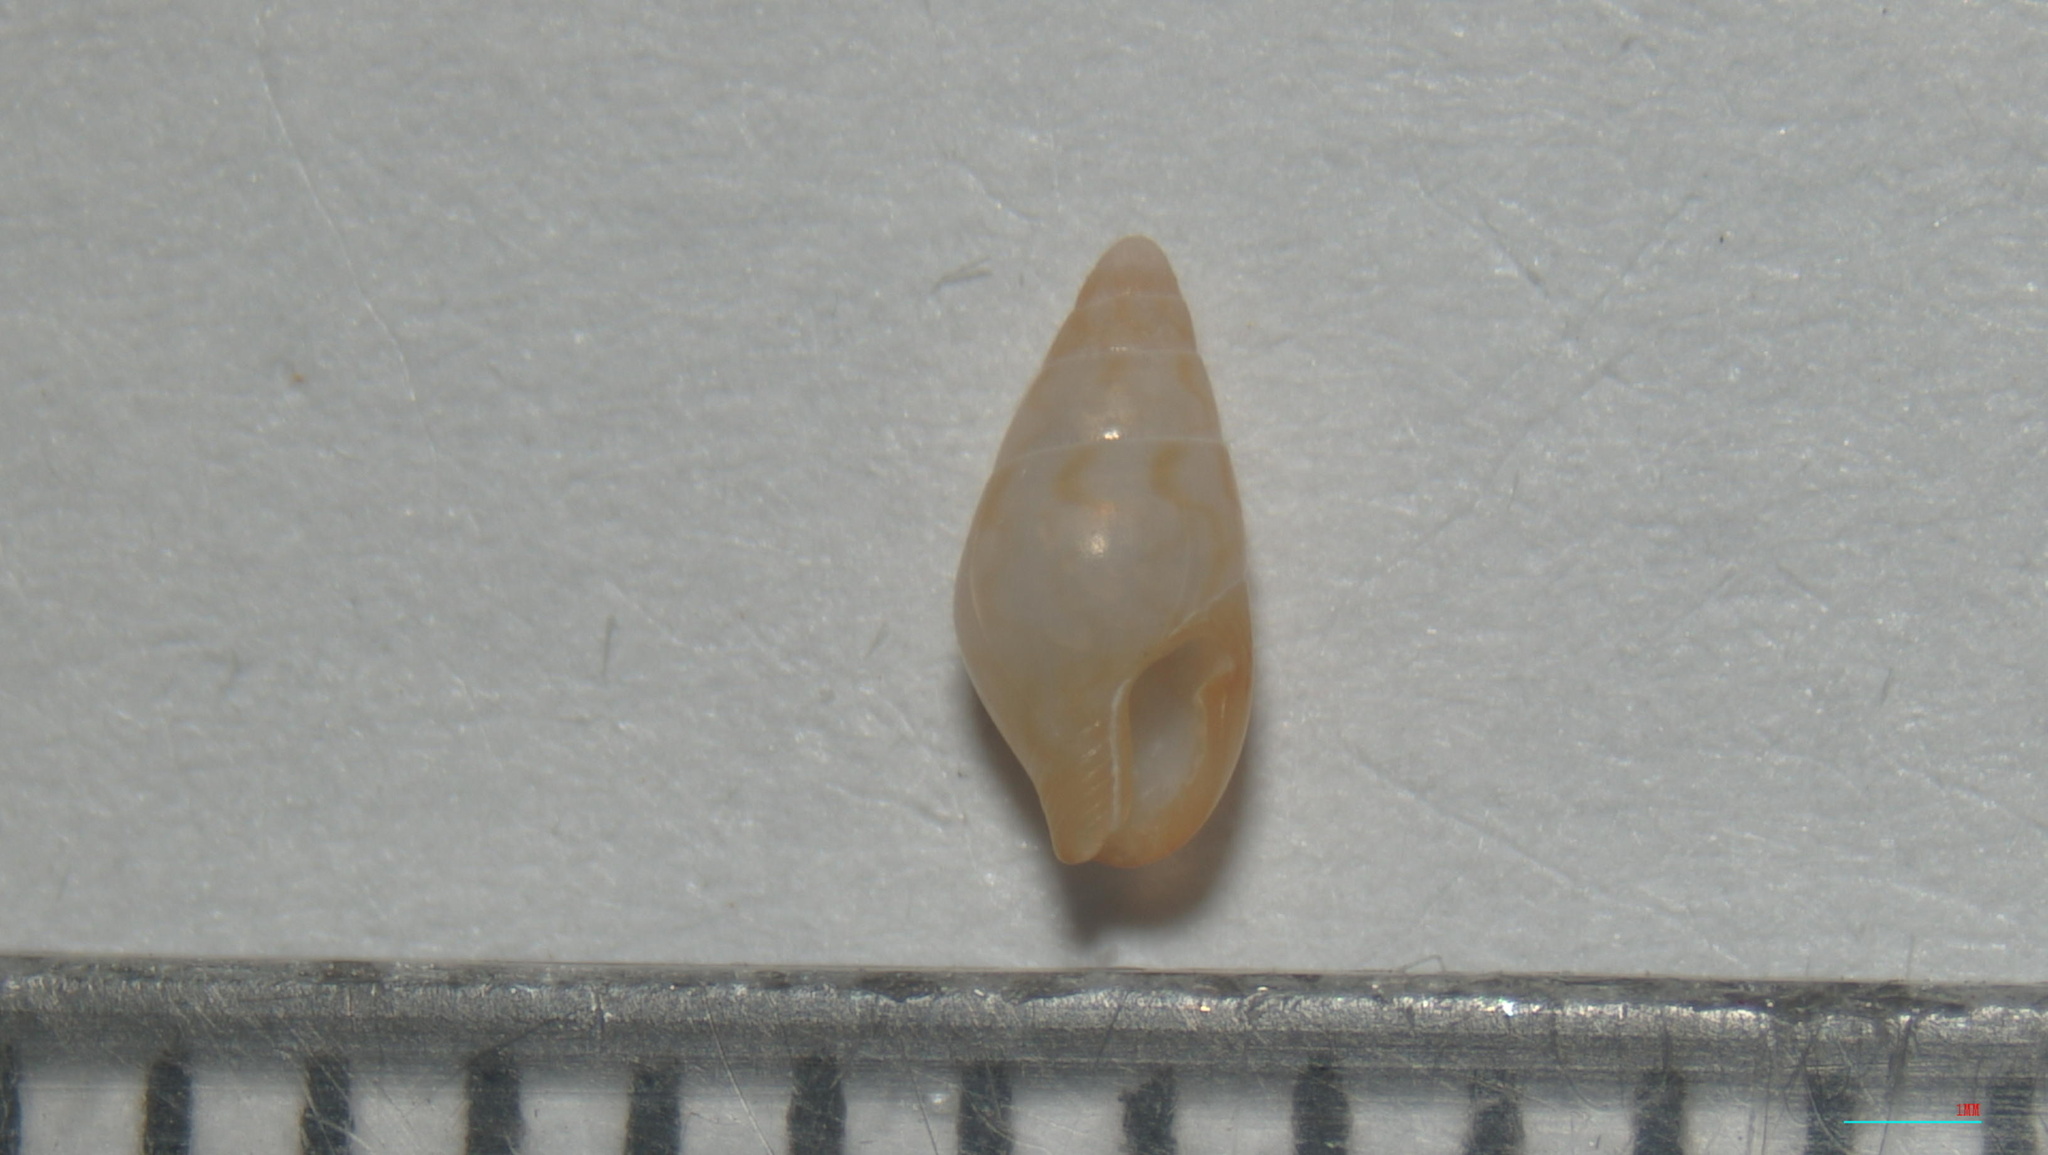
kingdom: Animalia
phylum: Mollusca
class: Gastropoda
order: Neogastropoda
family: Columbellidae
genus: Astyris
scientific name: Astyris lunata
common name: Lunar dovesnail
